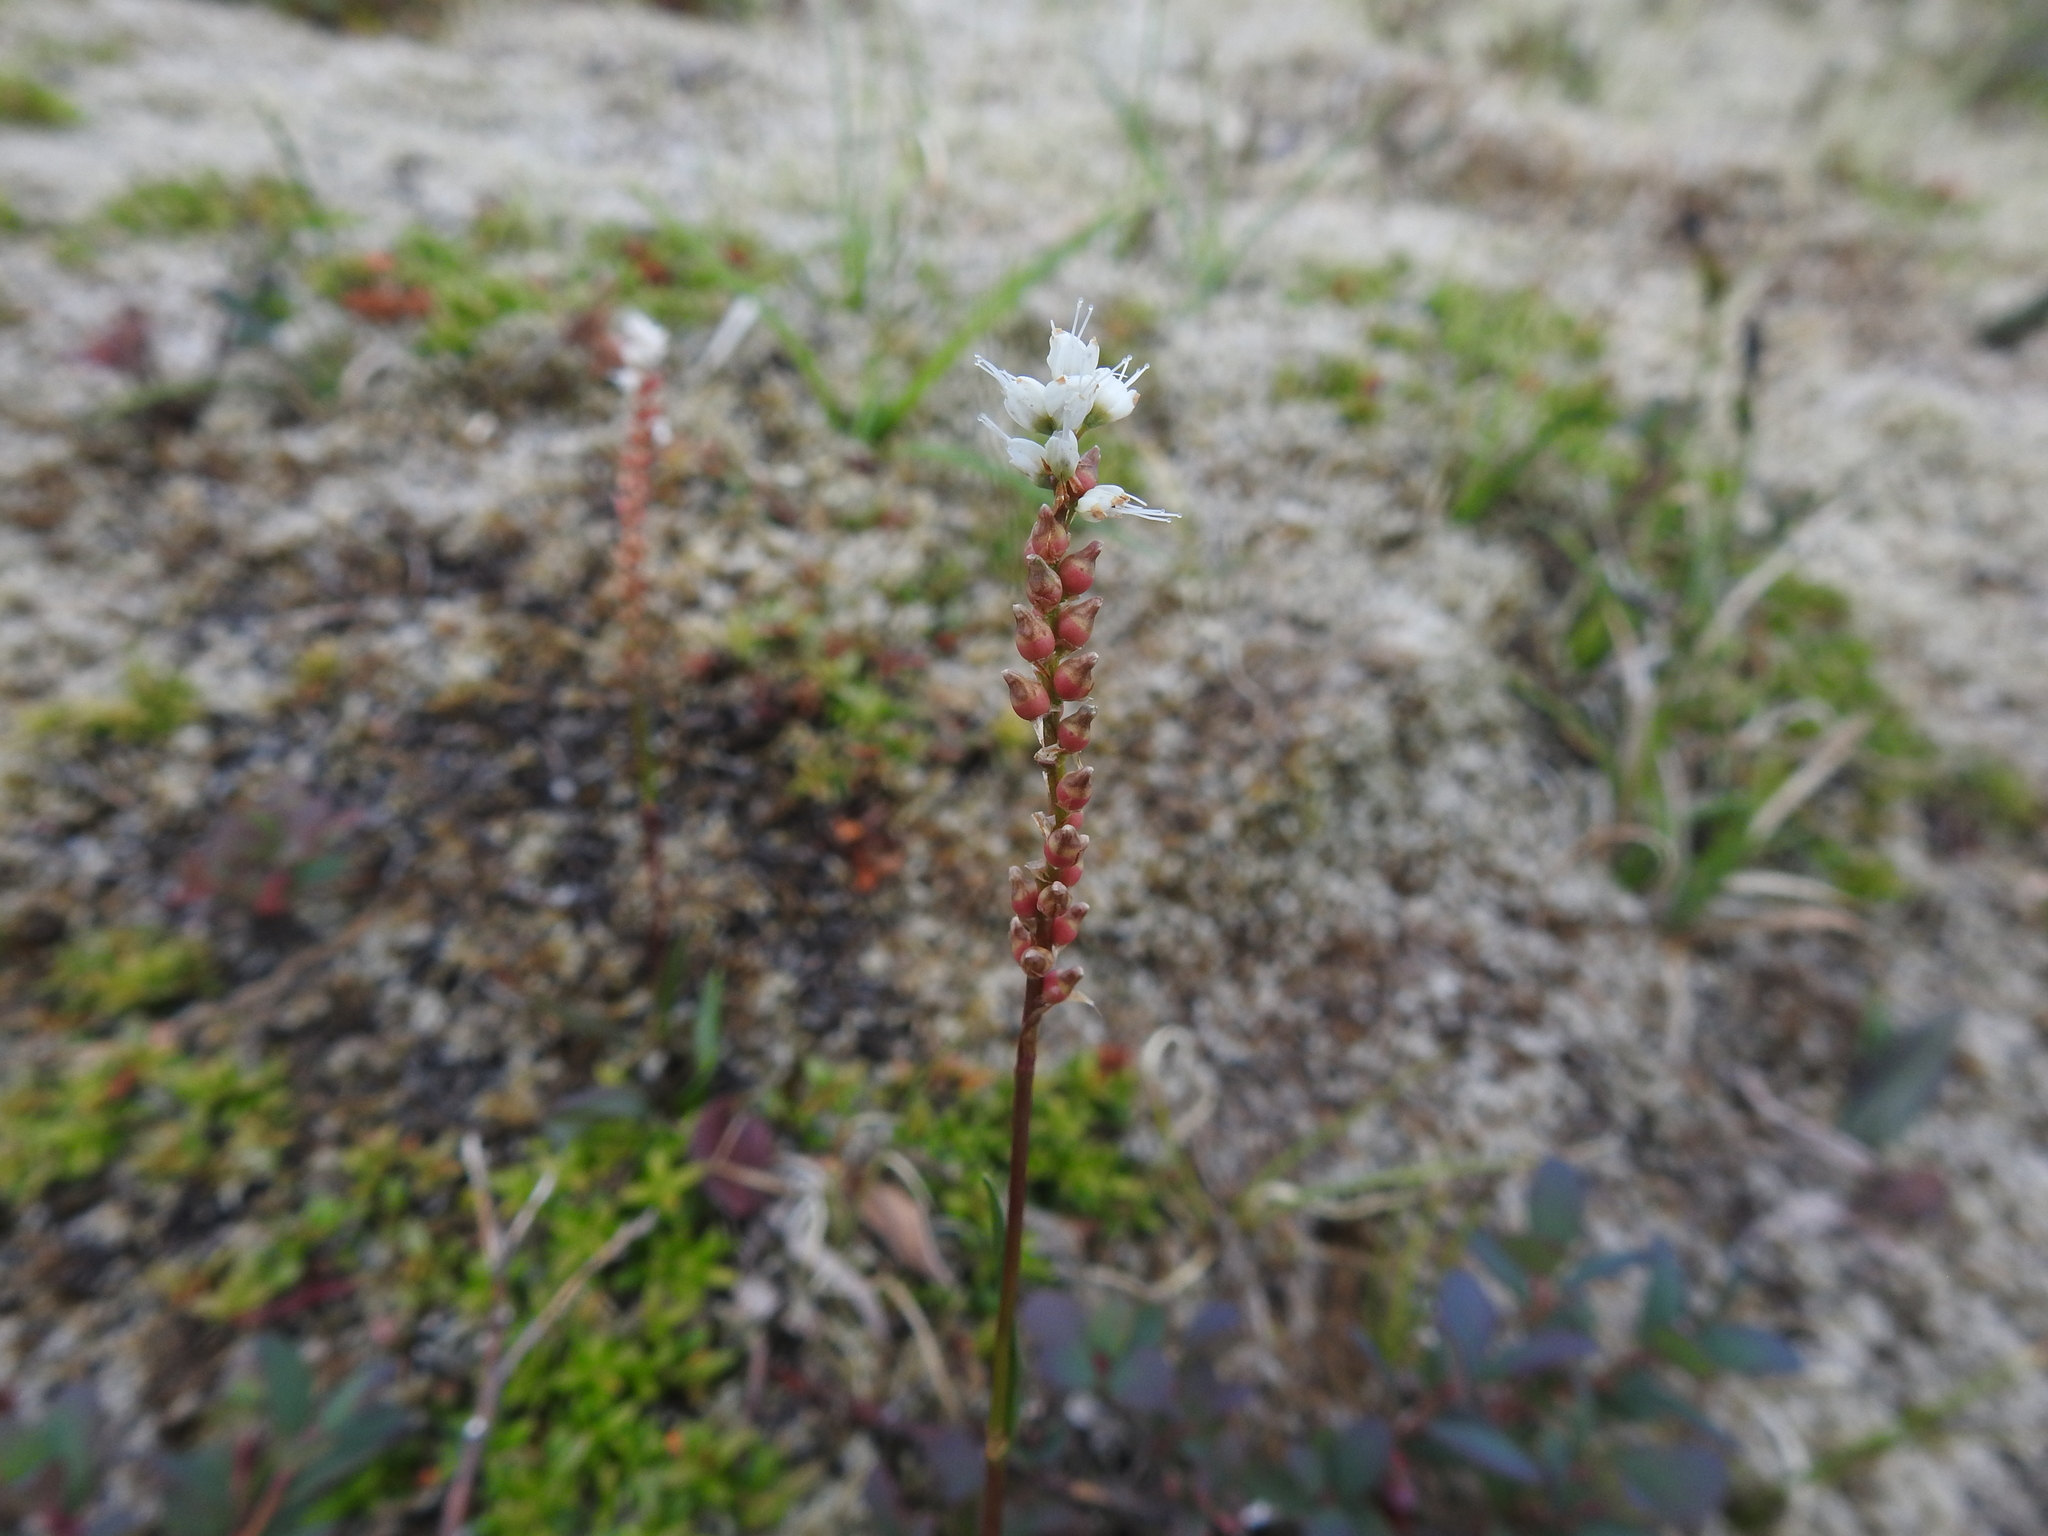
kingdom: Plantae
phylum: Tracheophyta
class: Magnoliopsida
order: Caryophyllales
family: Polygonaceae
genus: Bistorta
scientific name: Bistorta vivipara
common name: Alpine bistort
